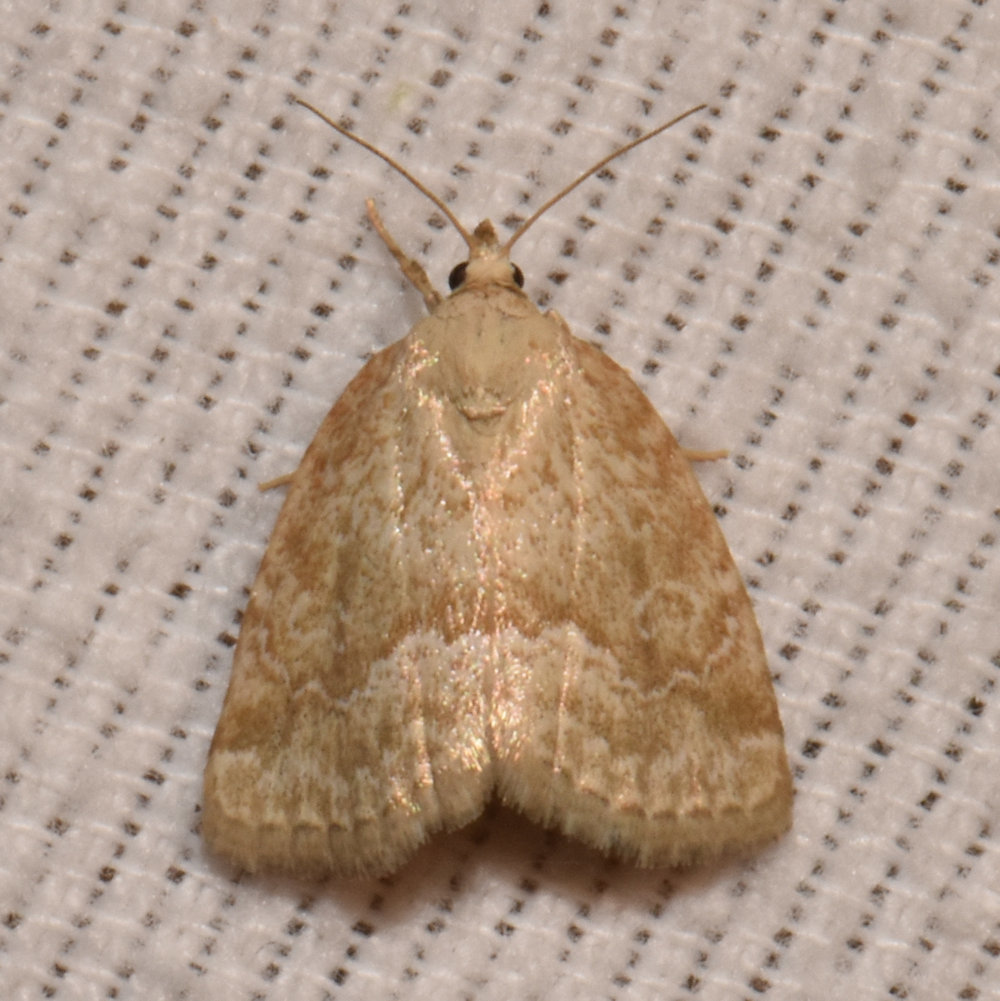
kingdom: Animalia
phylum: Arthropoda
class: Insecta
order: Lepidoptera
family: Noctuidae
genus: Protodeltote
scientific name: Protodeltote albidula
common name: Pale glyph
